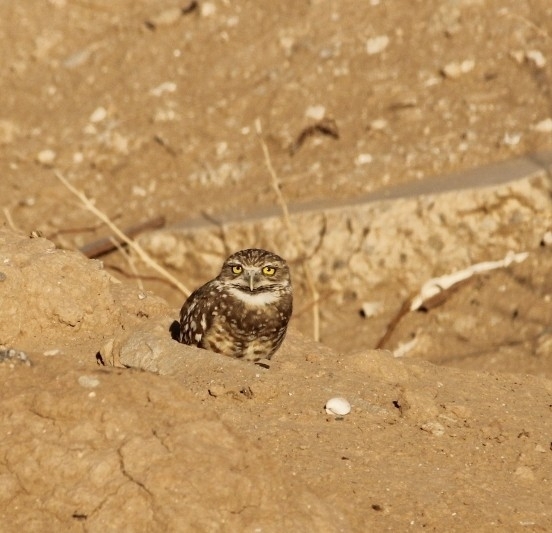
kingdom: Animalia
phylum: Chordata
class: Aves
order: Strigiformes
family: Strigidae
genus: Athene
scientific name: Athene cunicularia
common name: Burrowing owl
